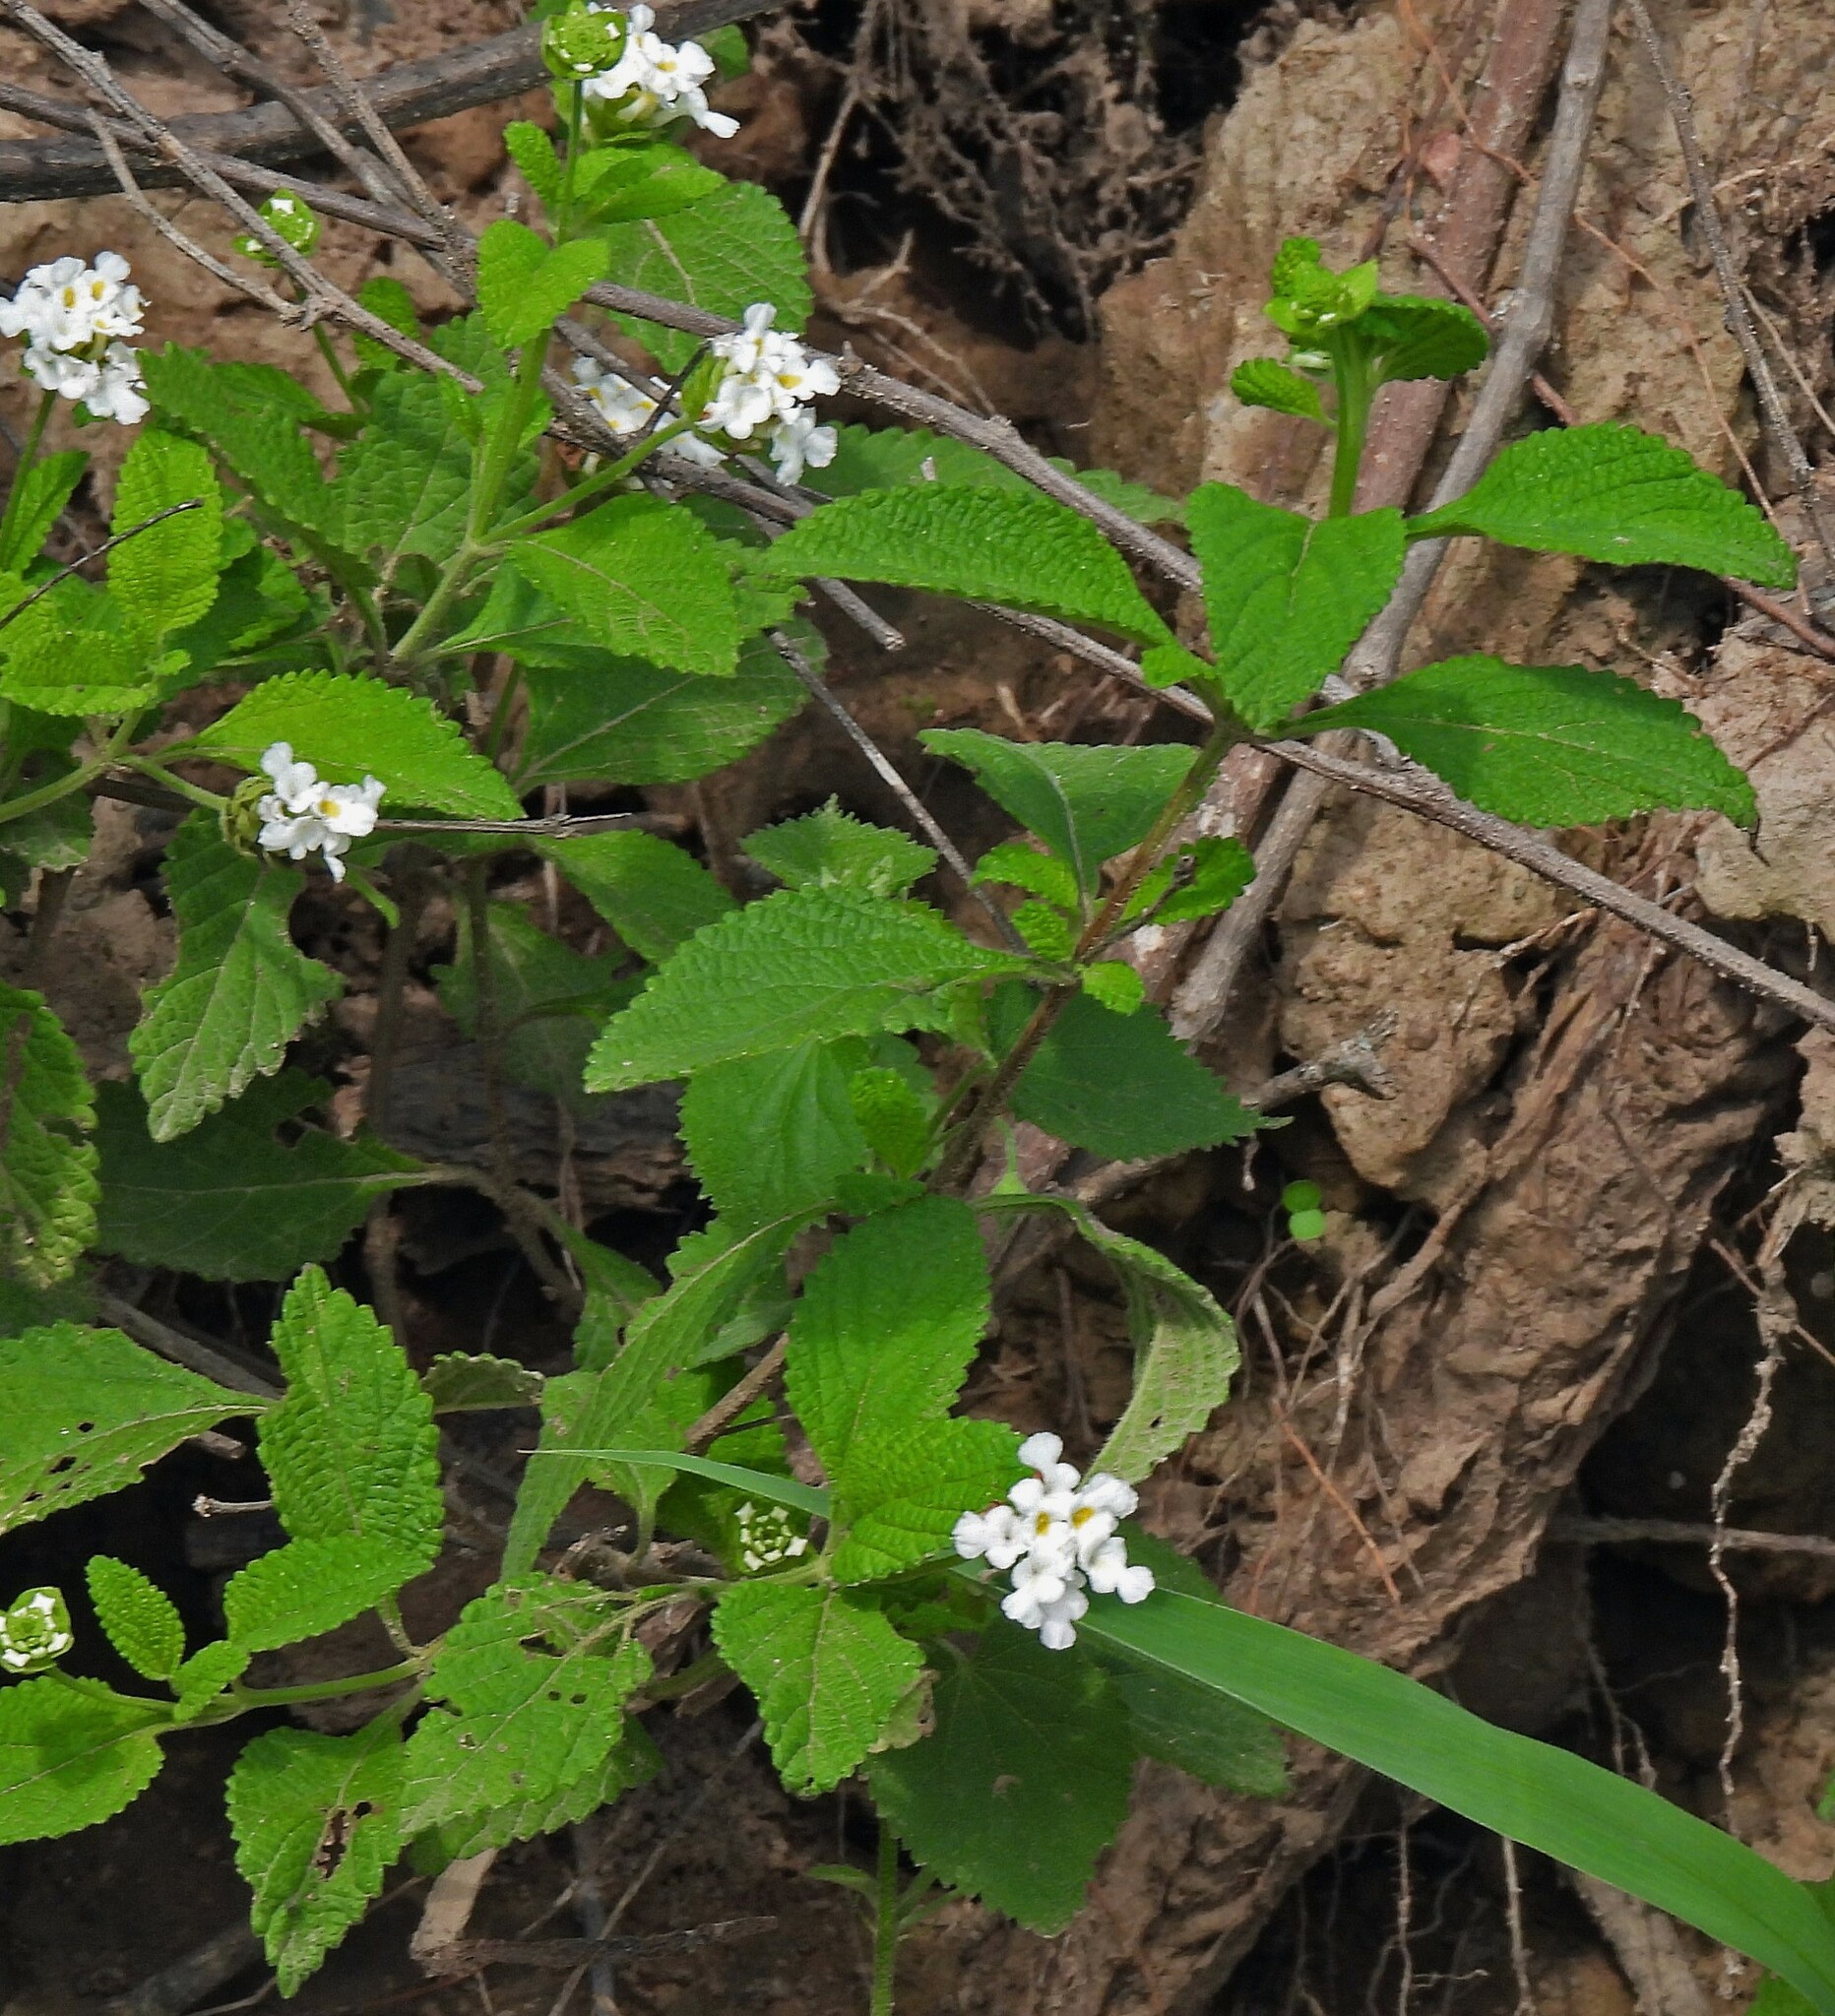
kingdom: Plantae
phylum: Tracheophyta
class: Magnoliopsida
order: Lamiales
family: Verbenaceae
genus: Lantana
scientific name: Lantana tilcarensis
